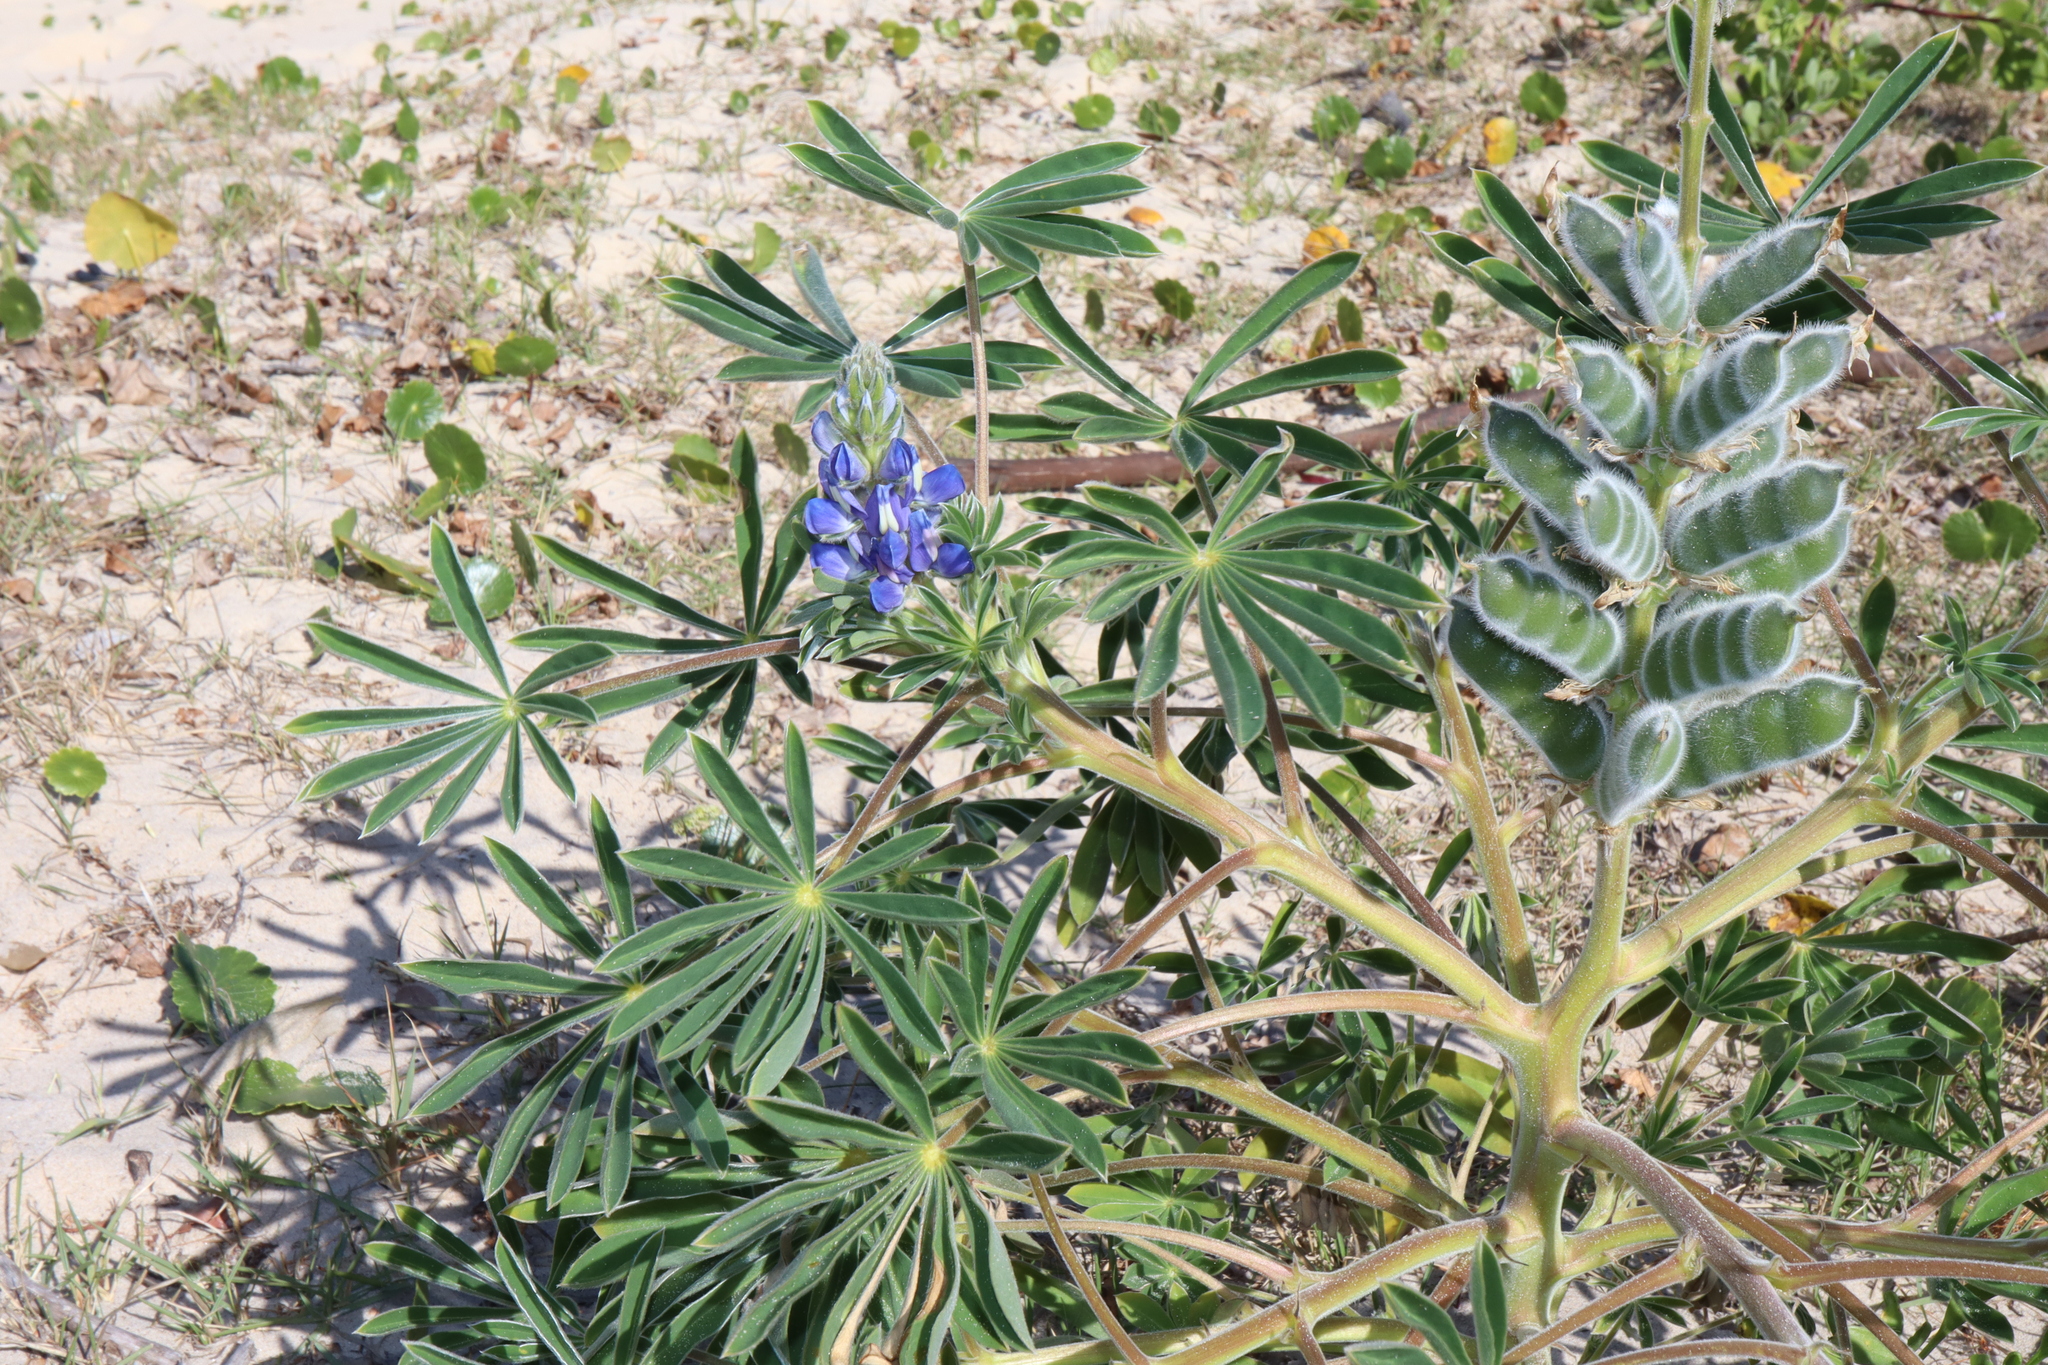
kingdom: Plantae
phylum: Tracheophyta
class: Magnoliopsida
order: Fabales
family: Fabaceae
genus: Lupinus
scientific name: Lupinus cosentinii
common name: Hairy blue lupin
